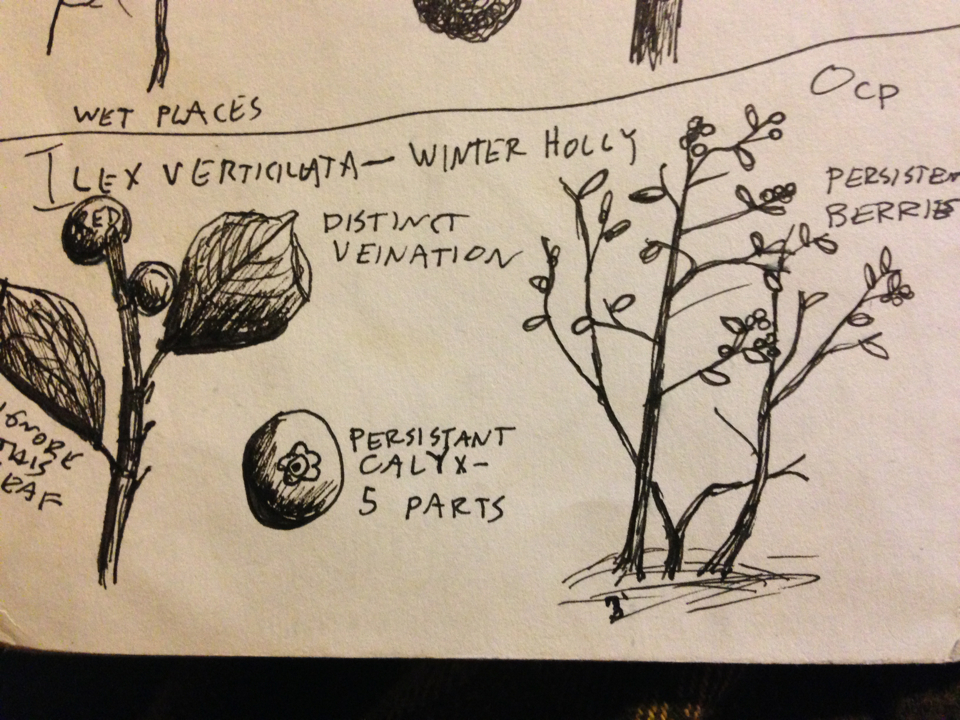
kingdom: Plantae
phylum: Tracheophyta
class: Magnoliopsida
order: Aquifoliales
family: Aquifoliaceae
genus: Ilex
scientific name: Ilex verticillata
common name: Virginia winterberry
